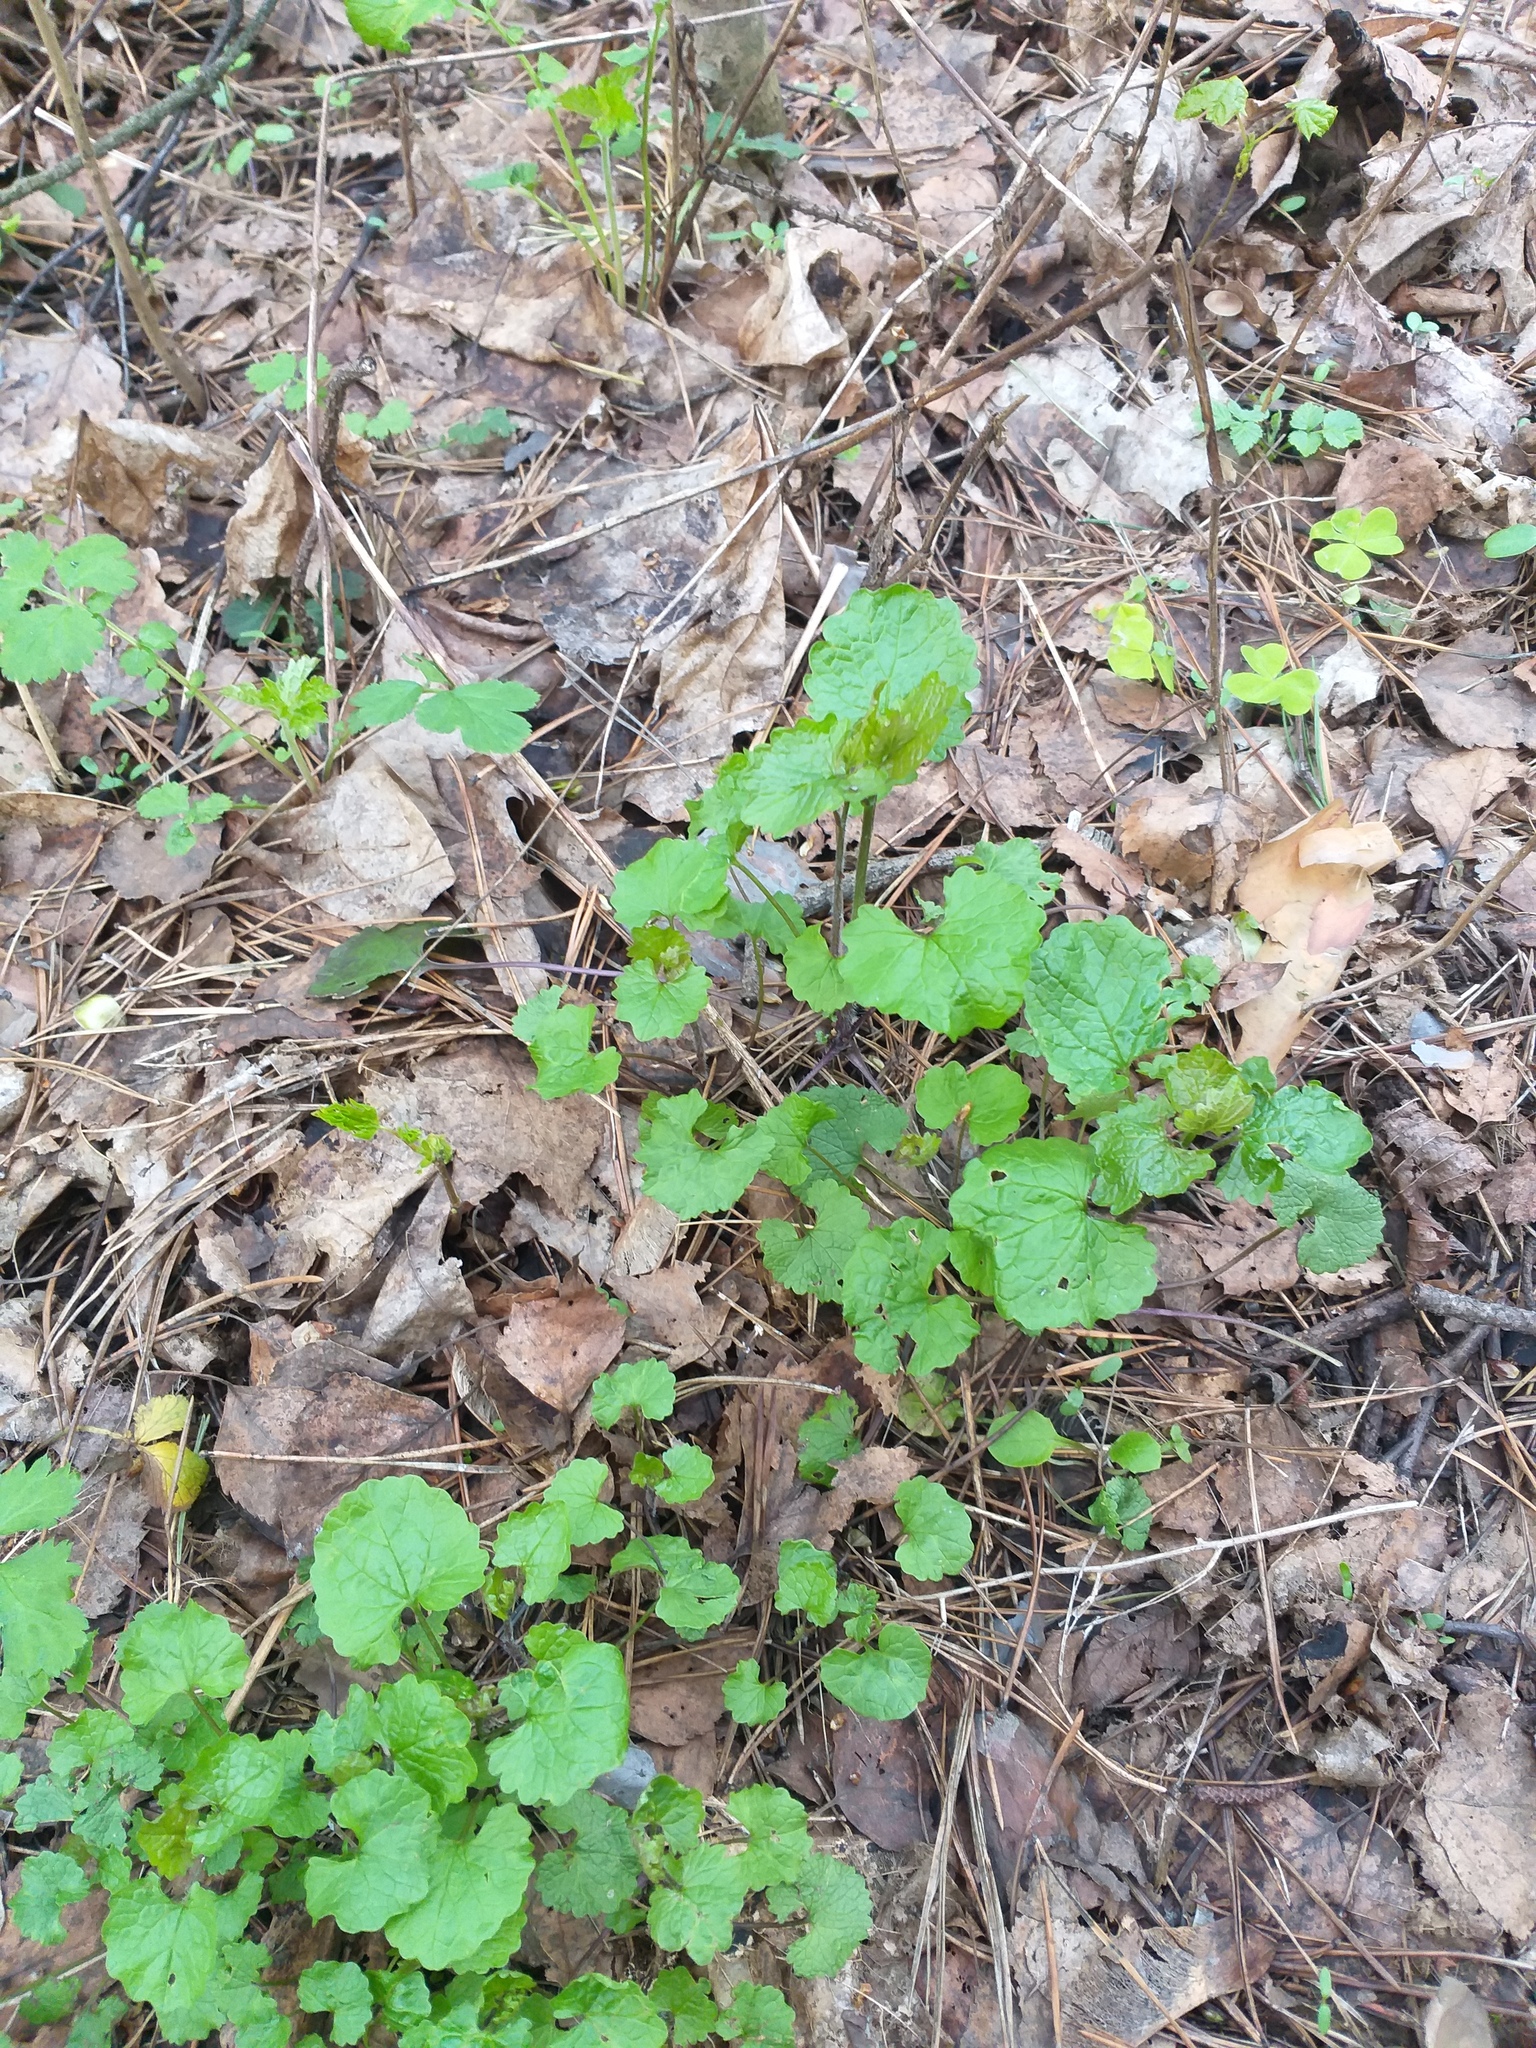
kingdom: Plantae
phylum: Tracheophyta
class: Magnoliopsida
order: Brassicales
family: Brassicaceae
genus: Alliaria
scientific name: Alliaria petiolata
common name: Garlic mustard
